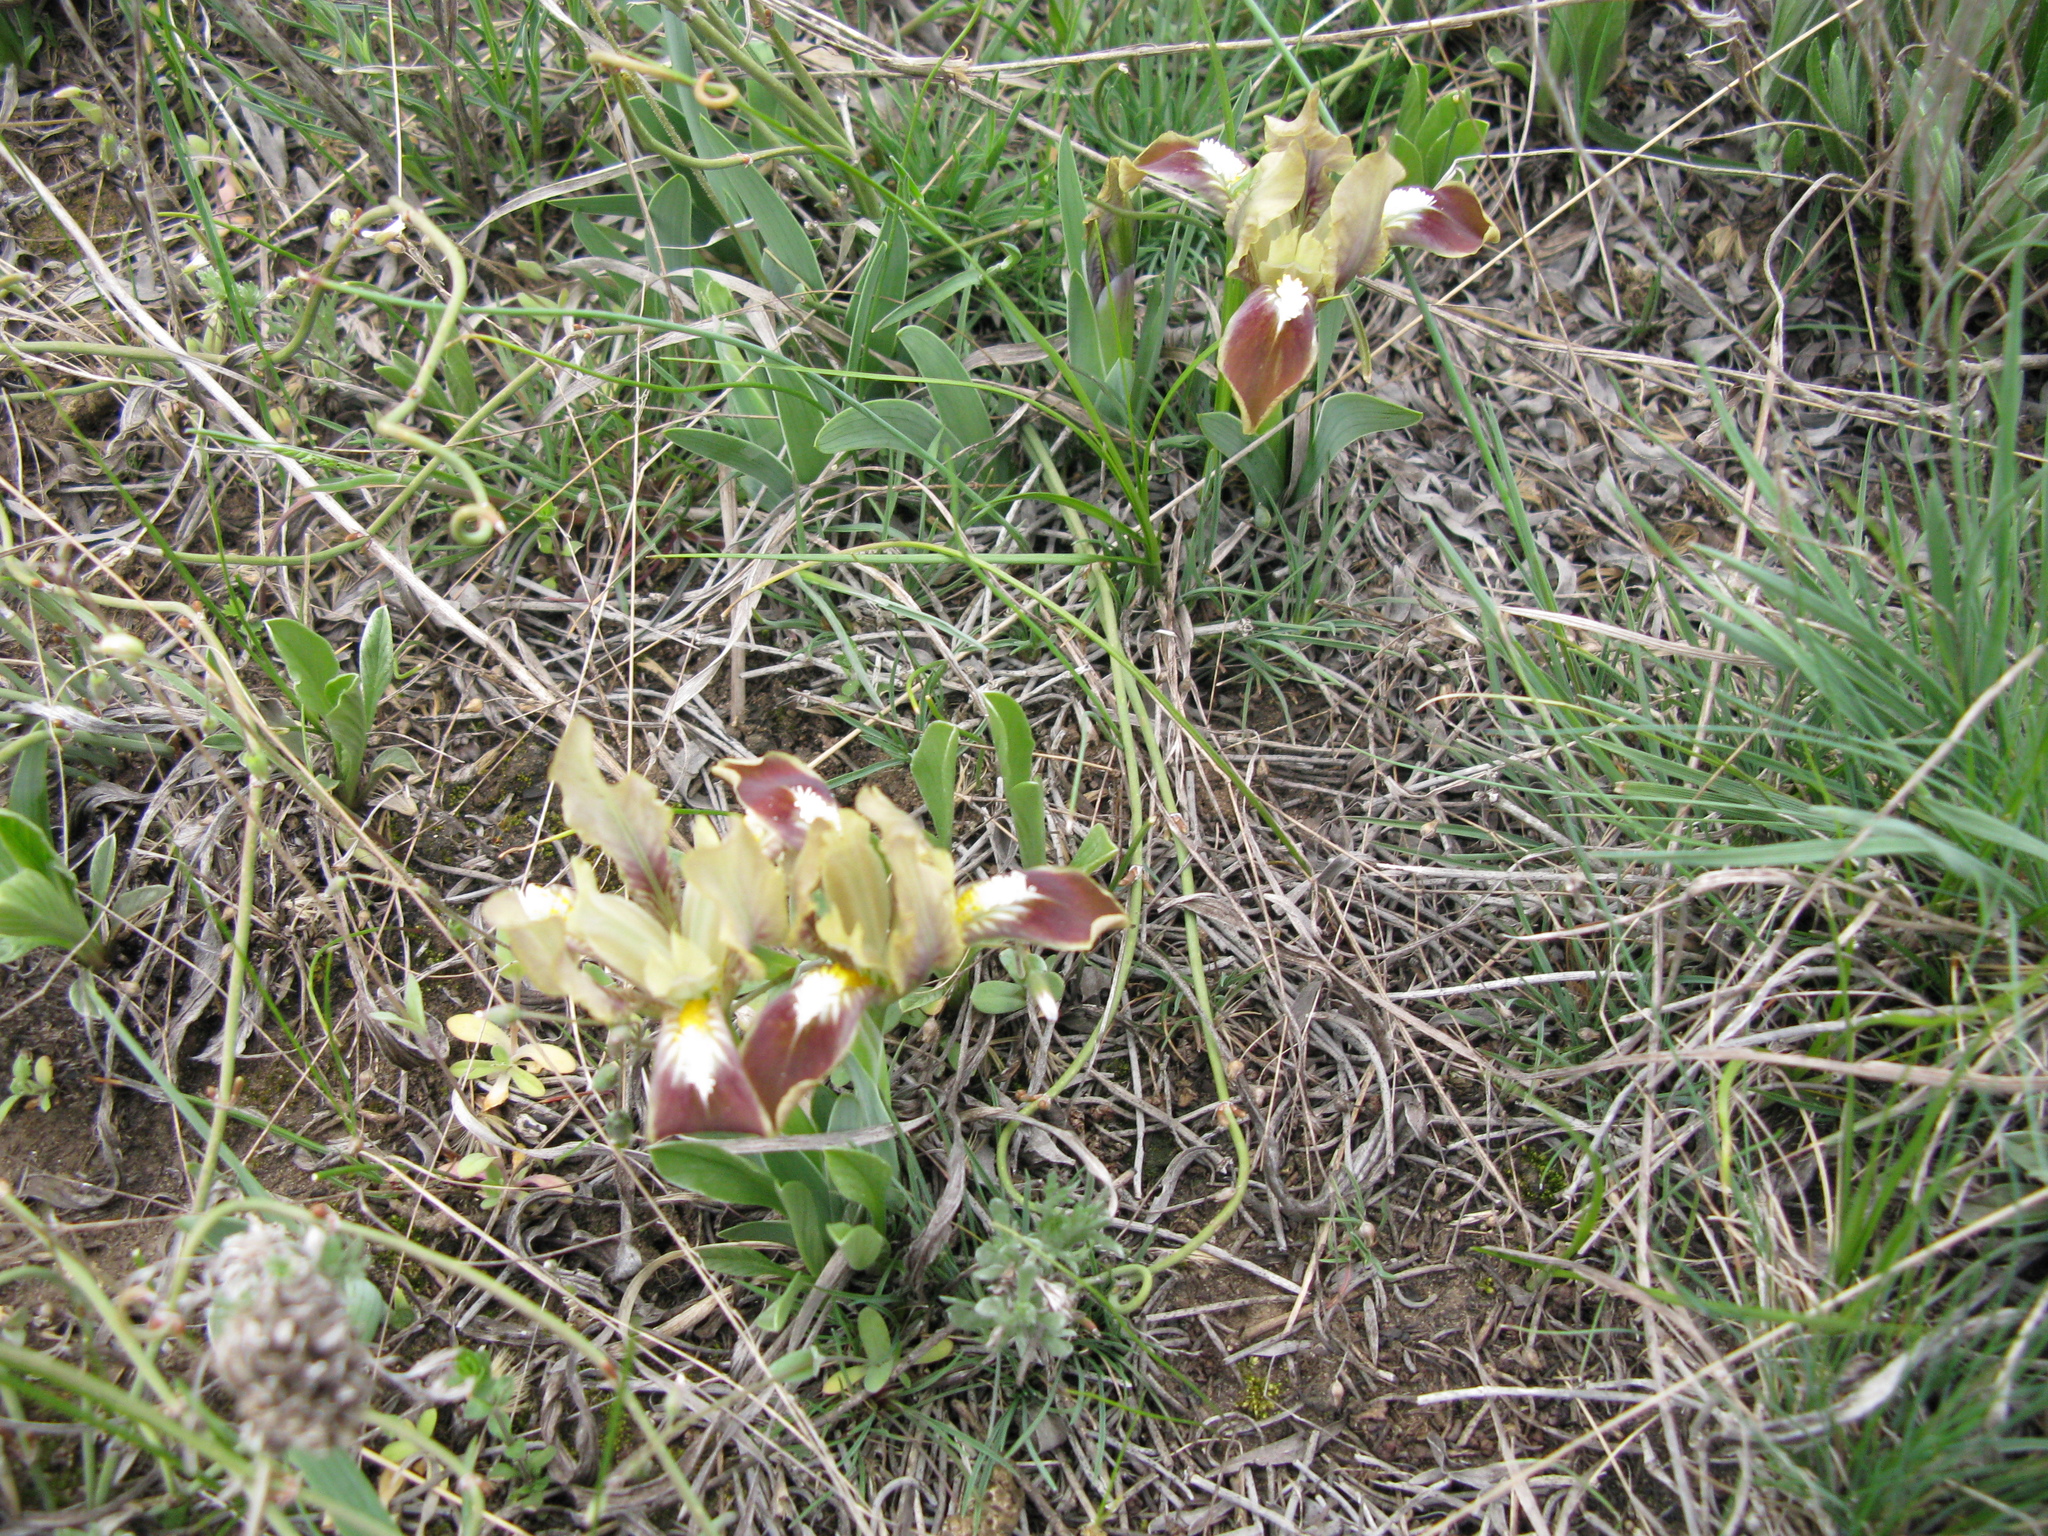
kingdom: Plantae
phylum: Tracheophyta
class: Liliopsida
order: Asparagales
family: Iridaceae
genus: Iris
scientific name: Iris pumila
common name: Dwarf iris
